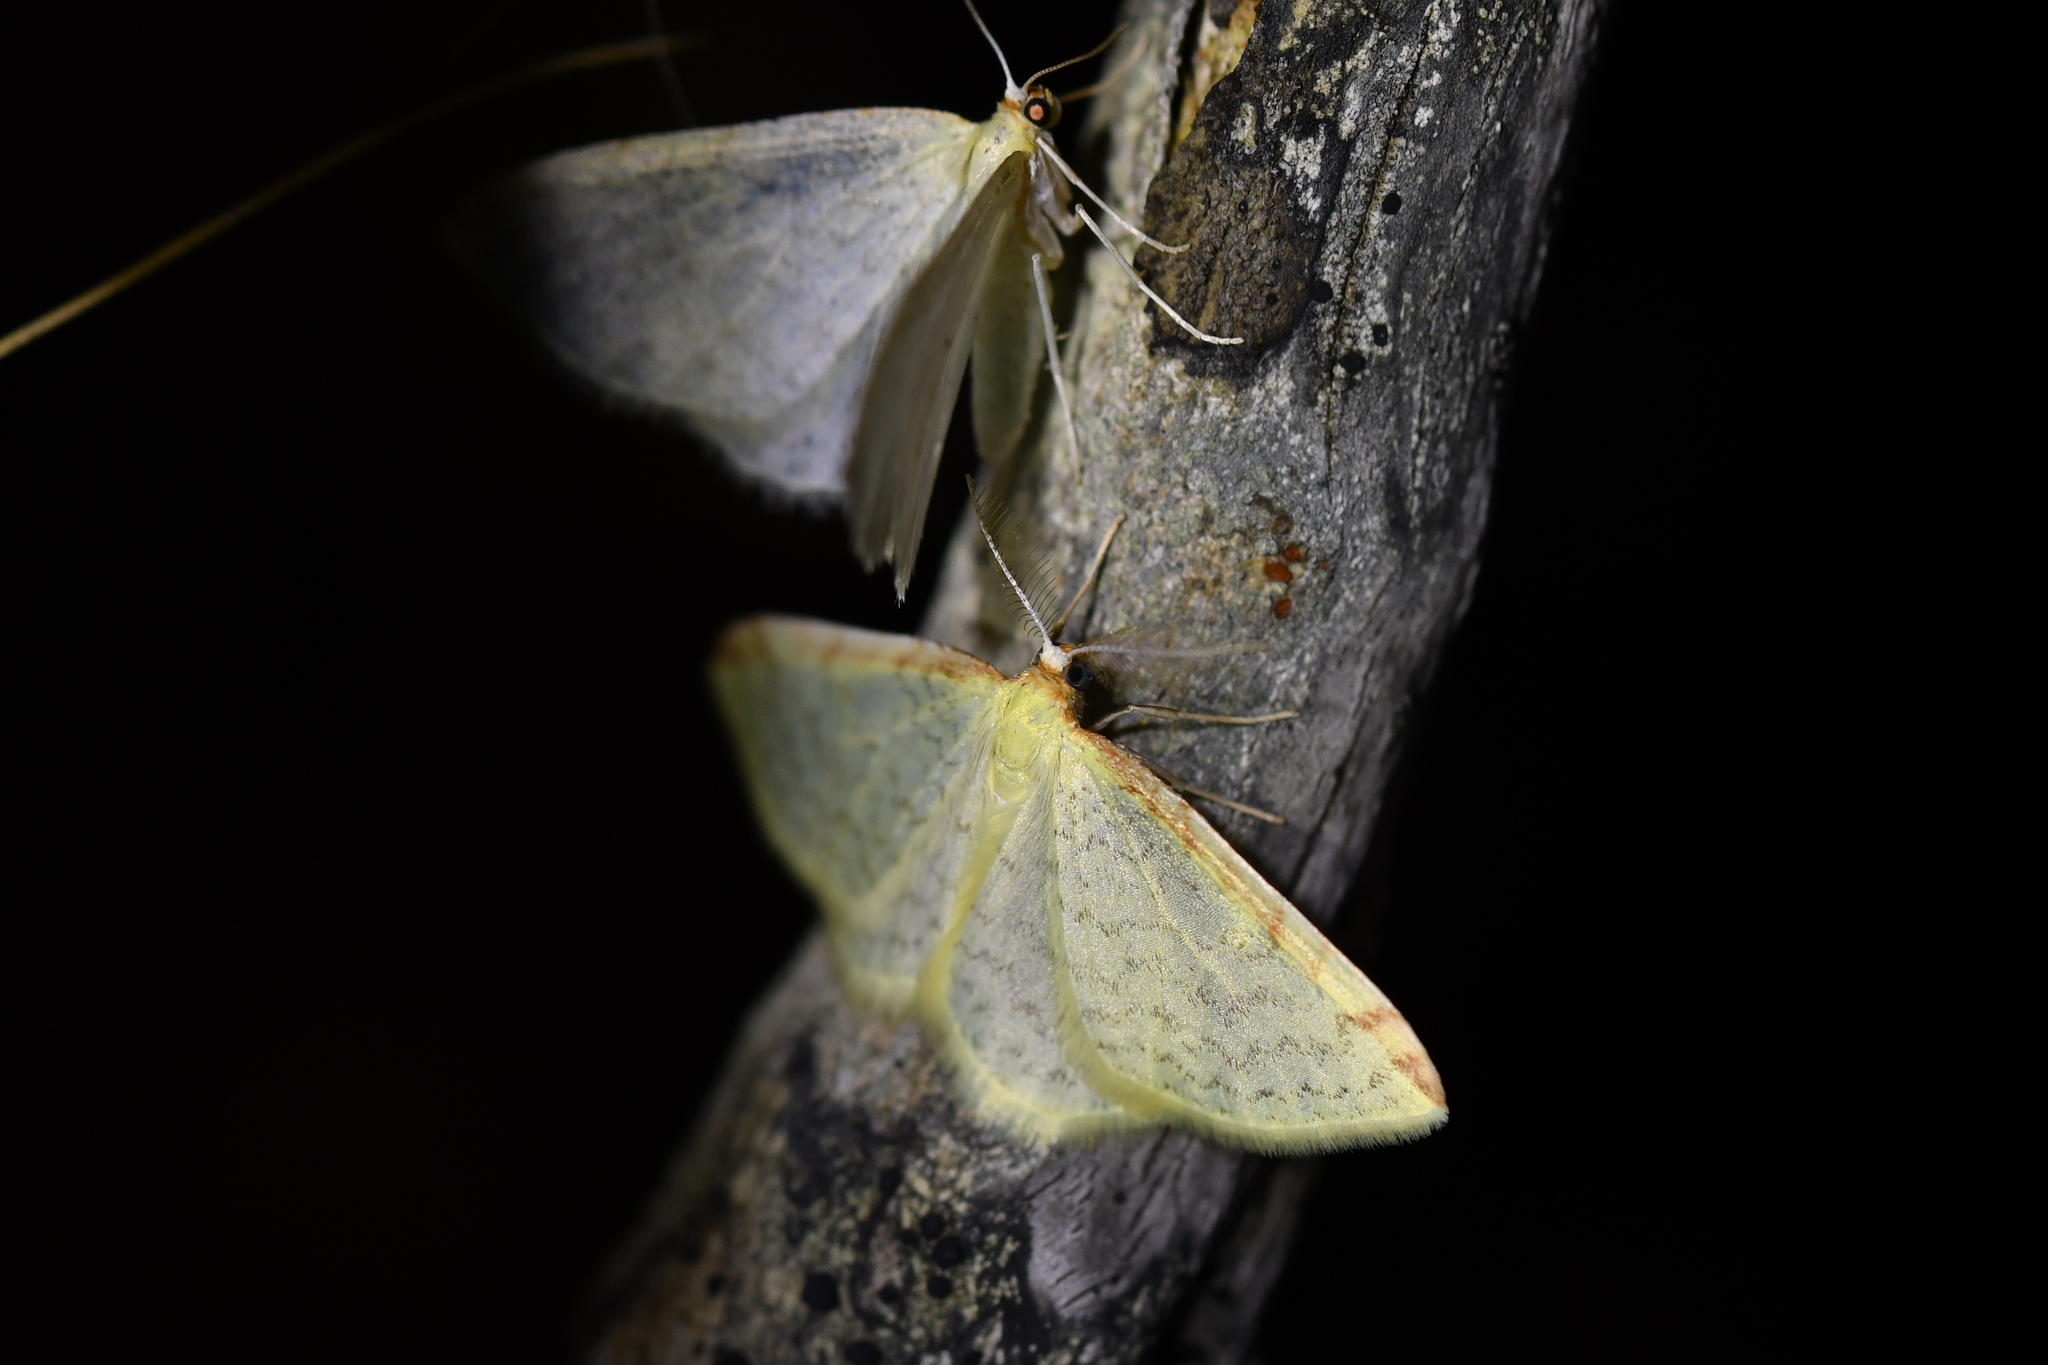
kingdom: Animalia
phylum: Arthropoda
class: Insecta
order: Lepidoptera
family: Geometridae
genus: Epiphryne
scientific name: Epiphryne undosata
